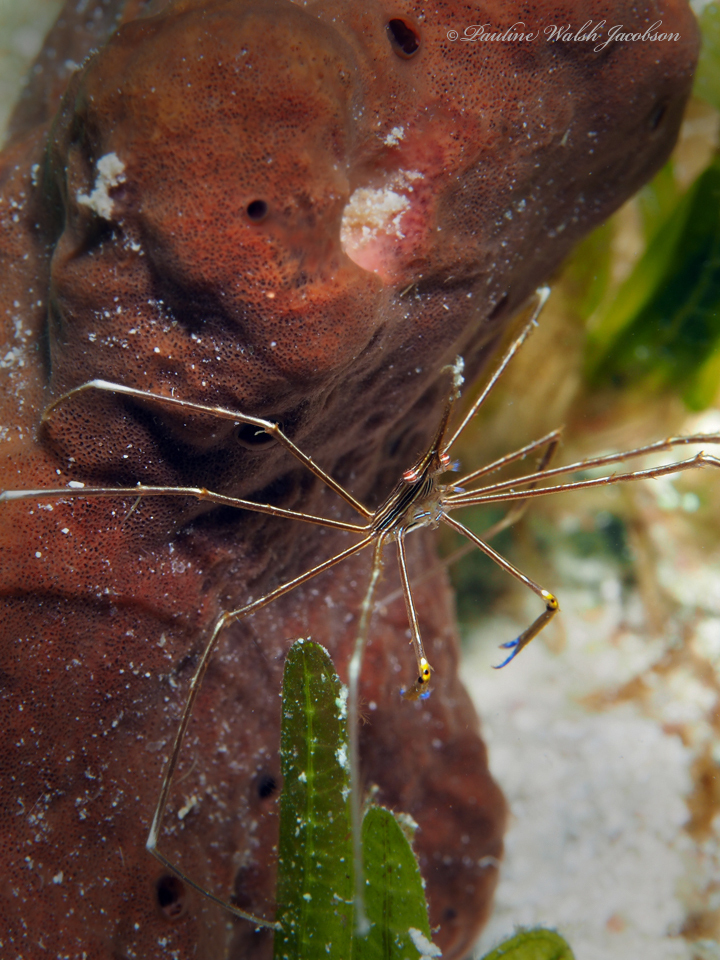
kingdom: Animalia
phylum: Arthropoda
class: Malacostraca
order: Decapoda
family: Inachoididae
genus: Stenorhynchus
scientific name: Stenorhynchus seticornis
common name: Arrow crab
